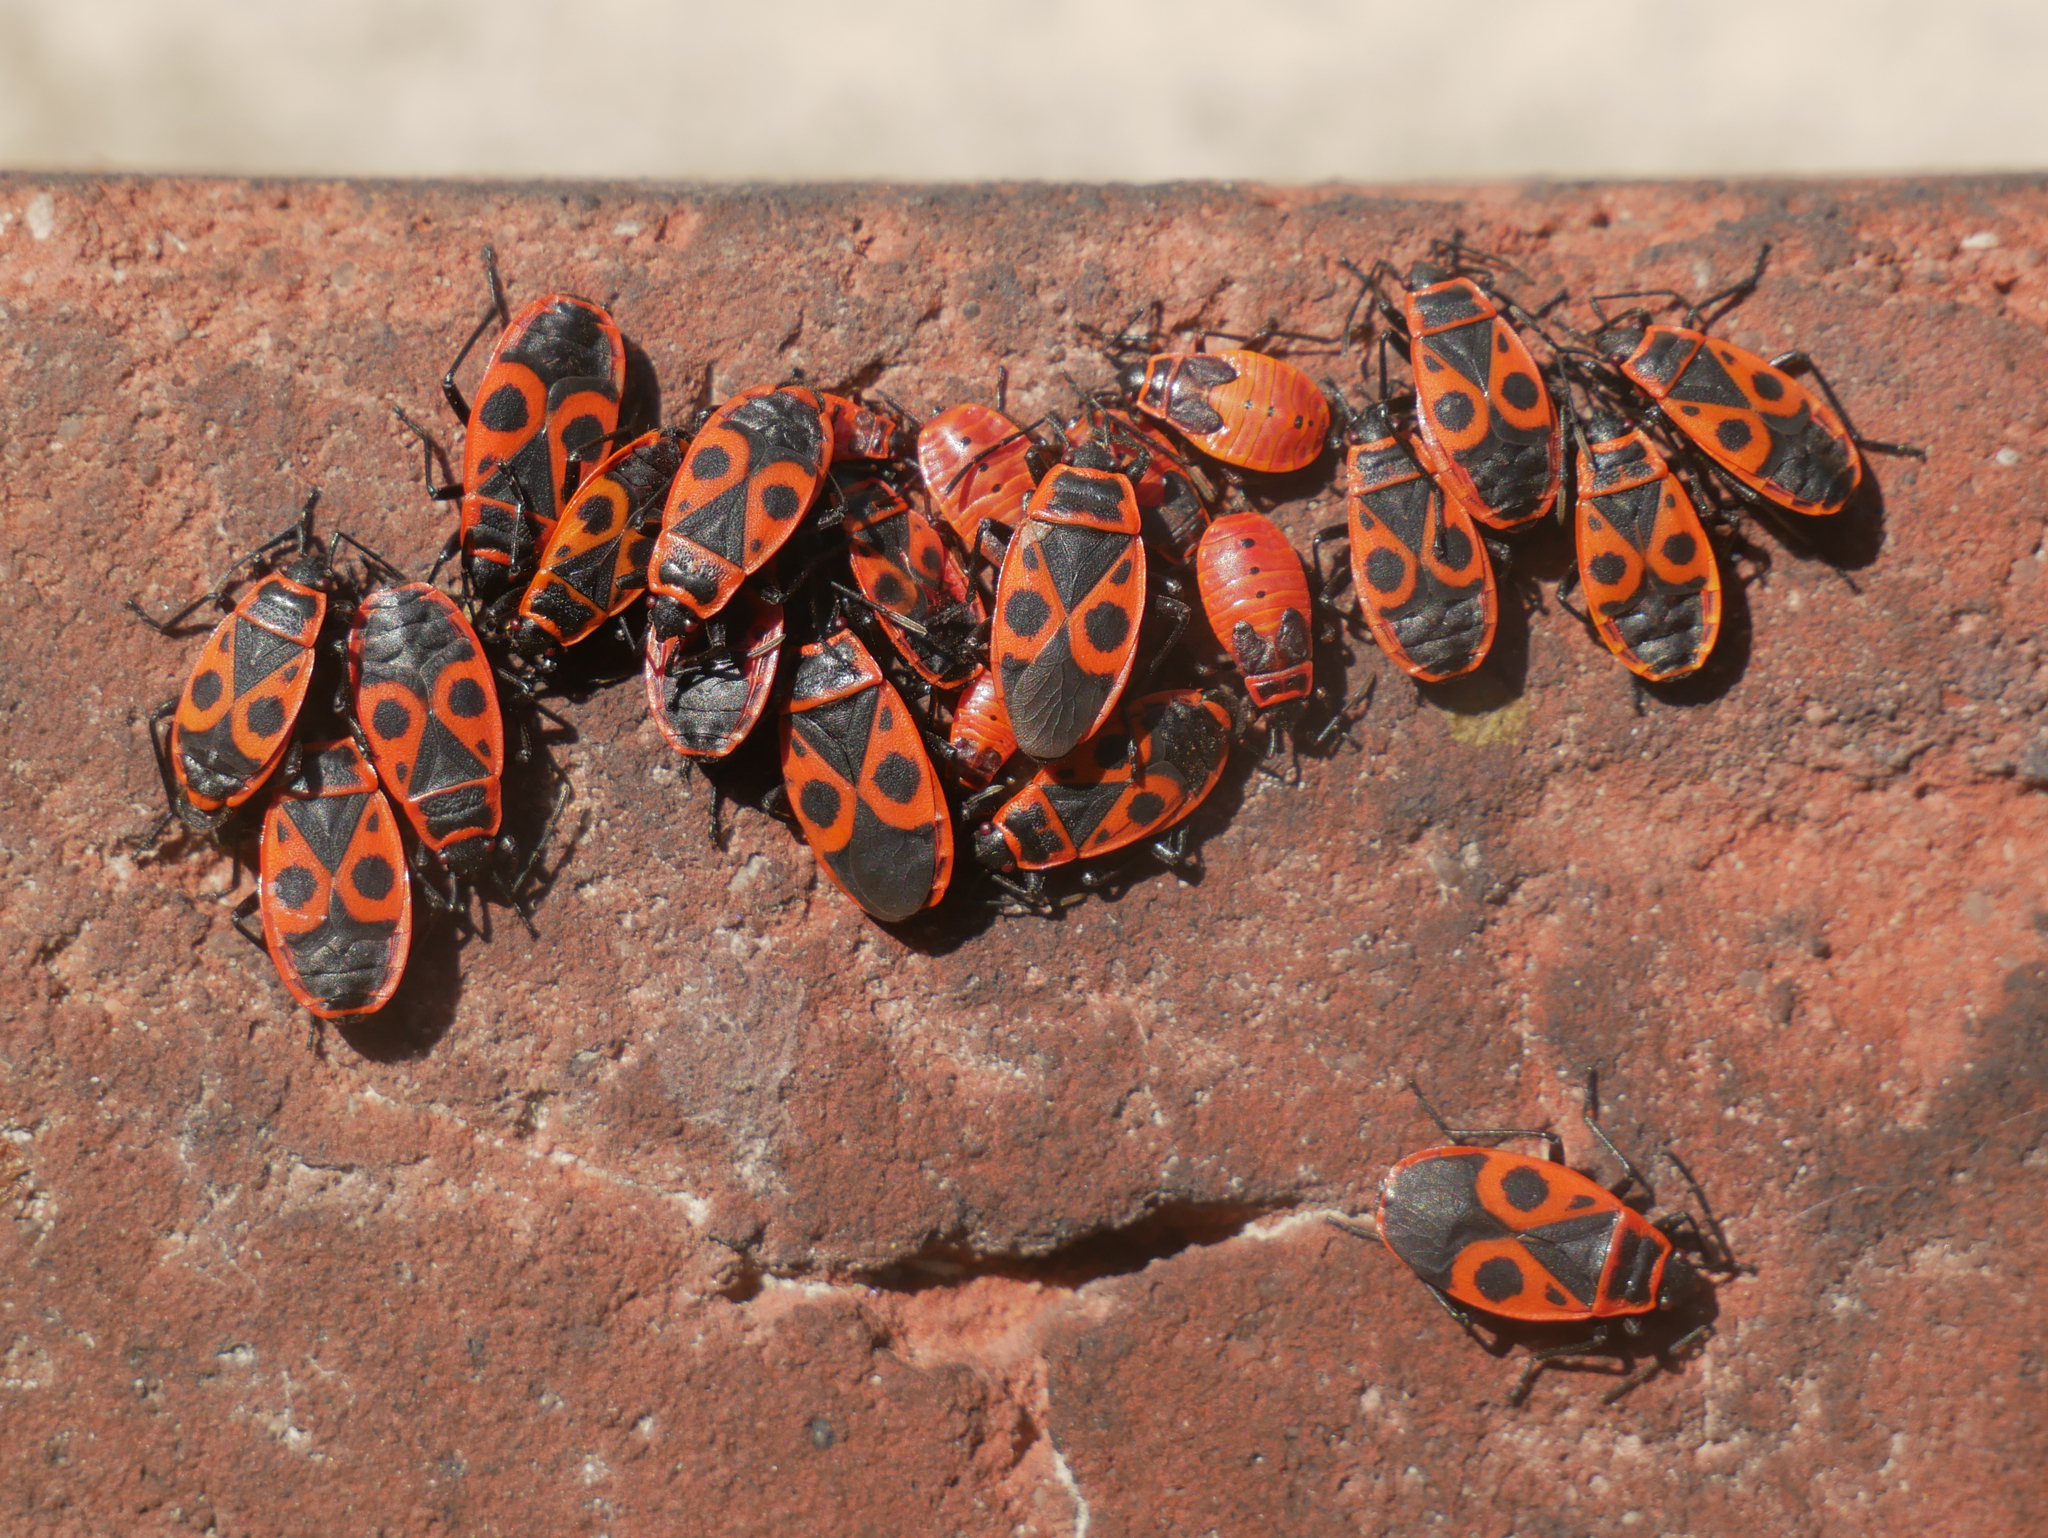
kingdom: Animalia
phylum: Arthropoda
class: Insecta
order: Hemiptera
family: Pyrrhocoridae
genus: Pyrrhocoris
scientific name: Pyrrhocoris apterus
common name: Firebug
